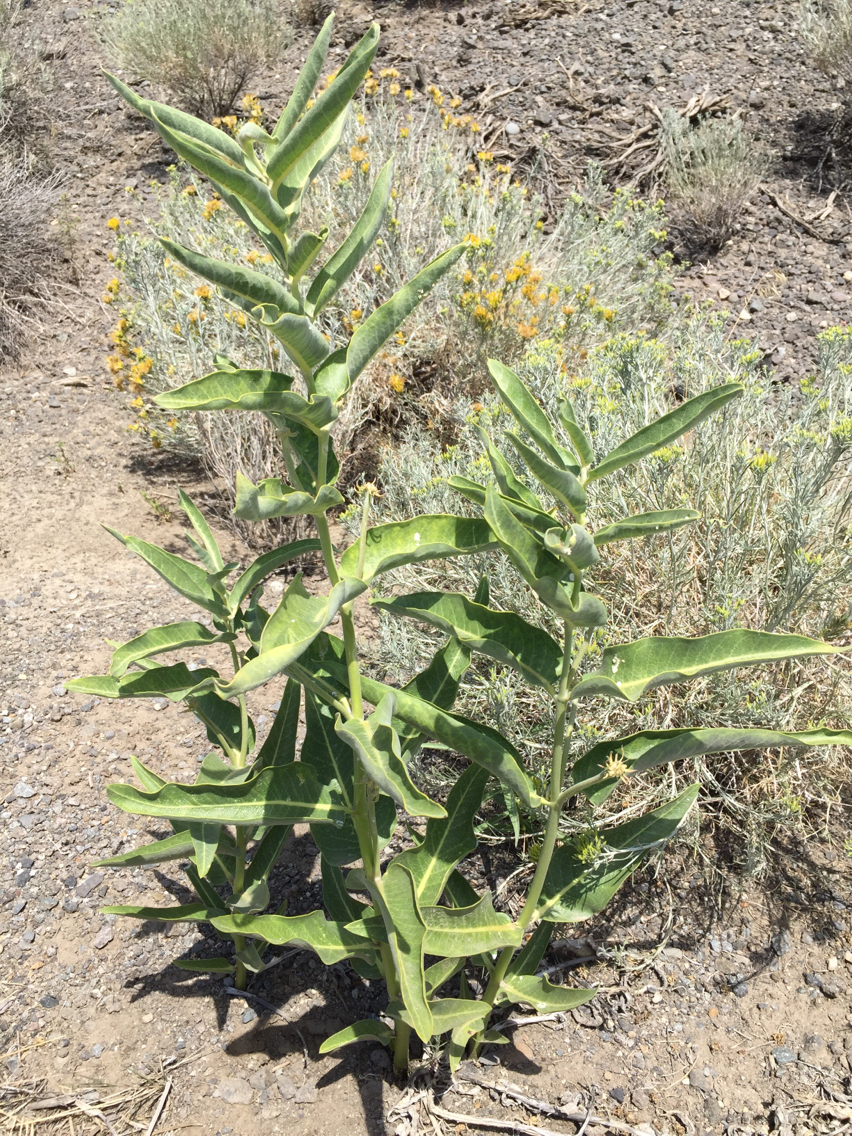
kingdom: Plantae
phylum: Tracheophyta
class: Magnoliopsida
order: Gentianales
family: Apocynaceae
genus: Asclepias
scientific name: Asclepias speciosa
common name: Showy milkweed
